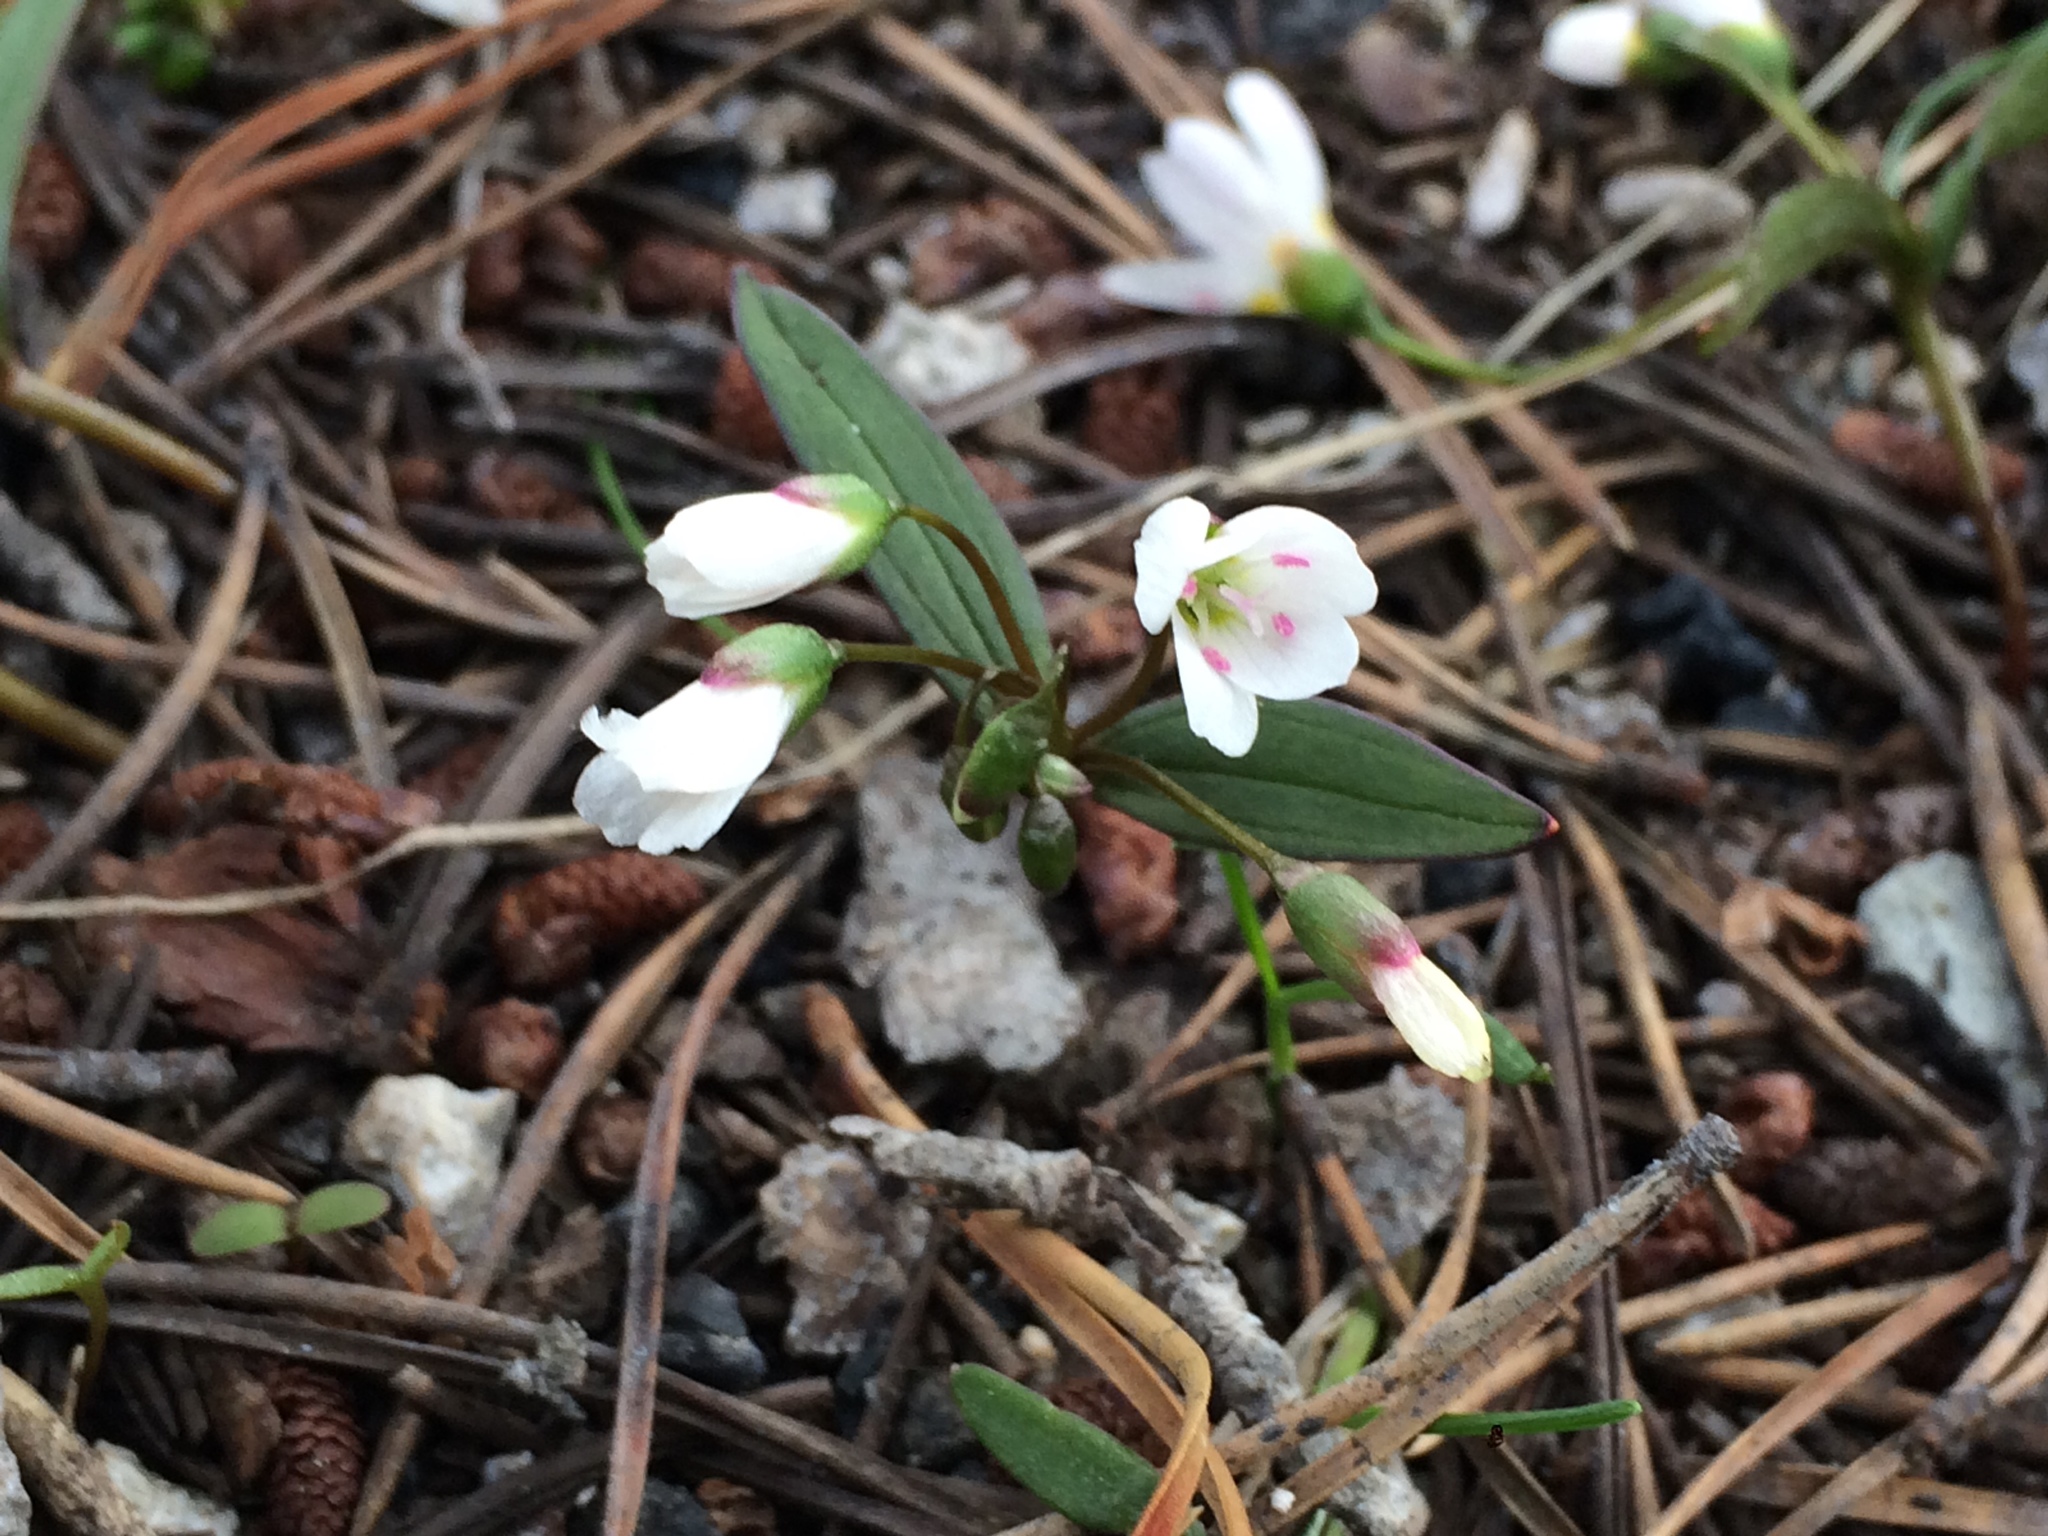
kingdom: Plantae
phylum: Tracheophyta
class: Magnoliopsida
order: Caryophyllales
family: Montiaceae
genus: Claytonia
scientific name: Claytonia lanceolata
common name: Western spring-beauty
